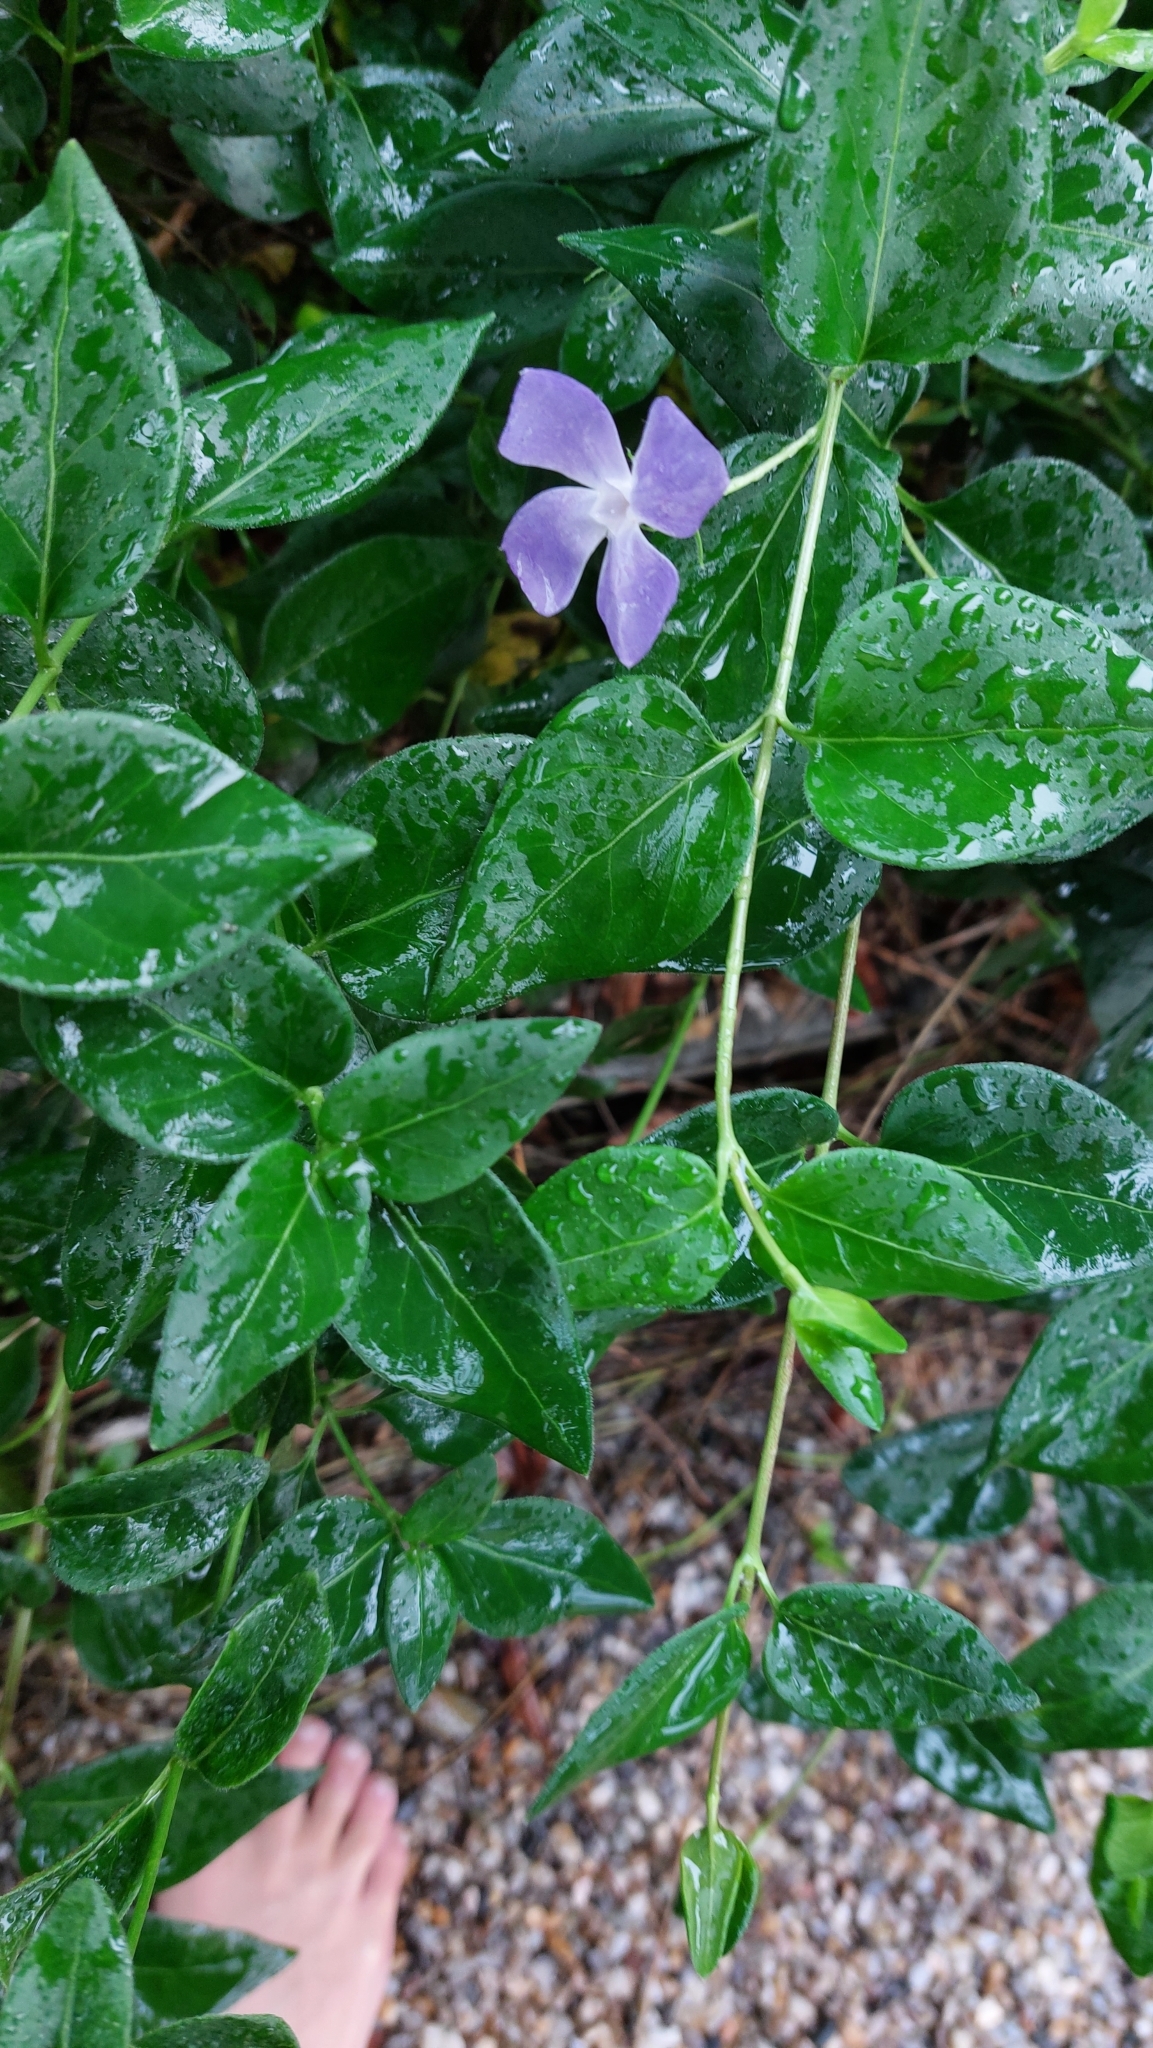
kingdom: Plantae
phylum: Tracheophyta
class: Magnoliopsida
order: Gentianales
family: Apocynaceae
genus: Vinca
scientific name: Vinca major
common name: Greater periwinkle
